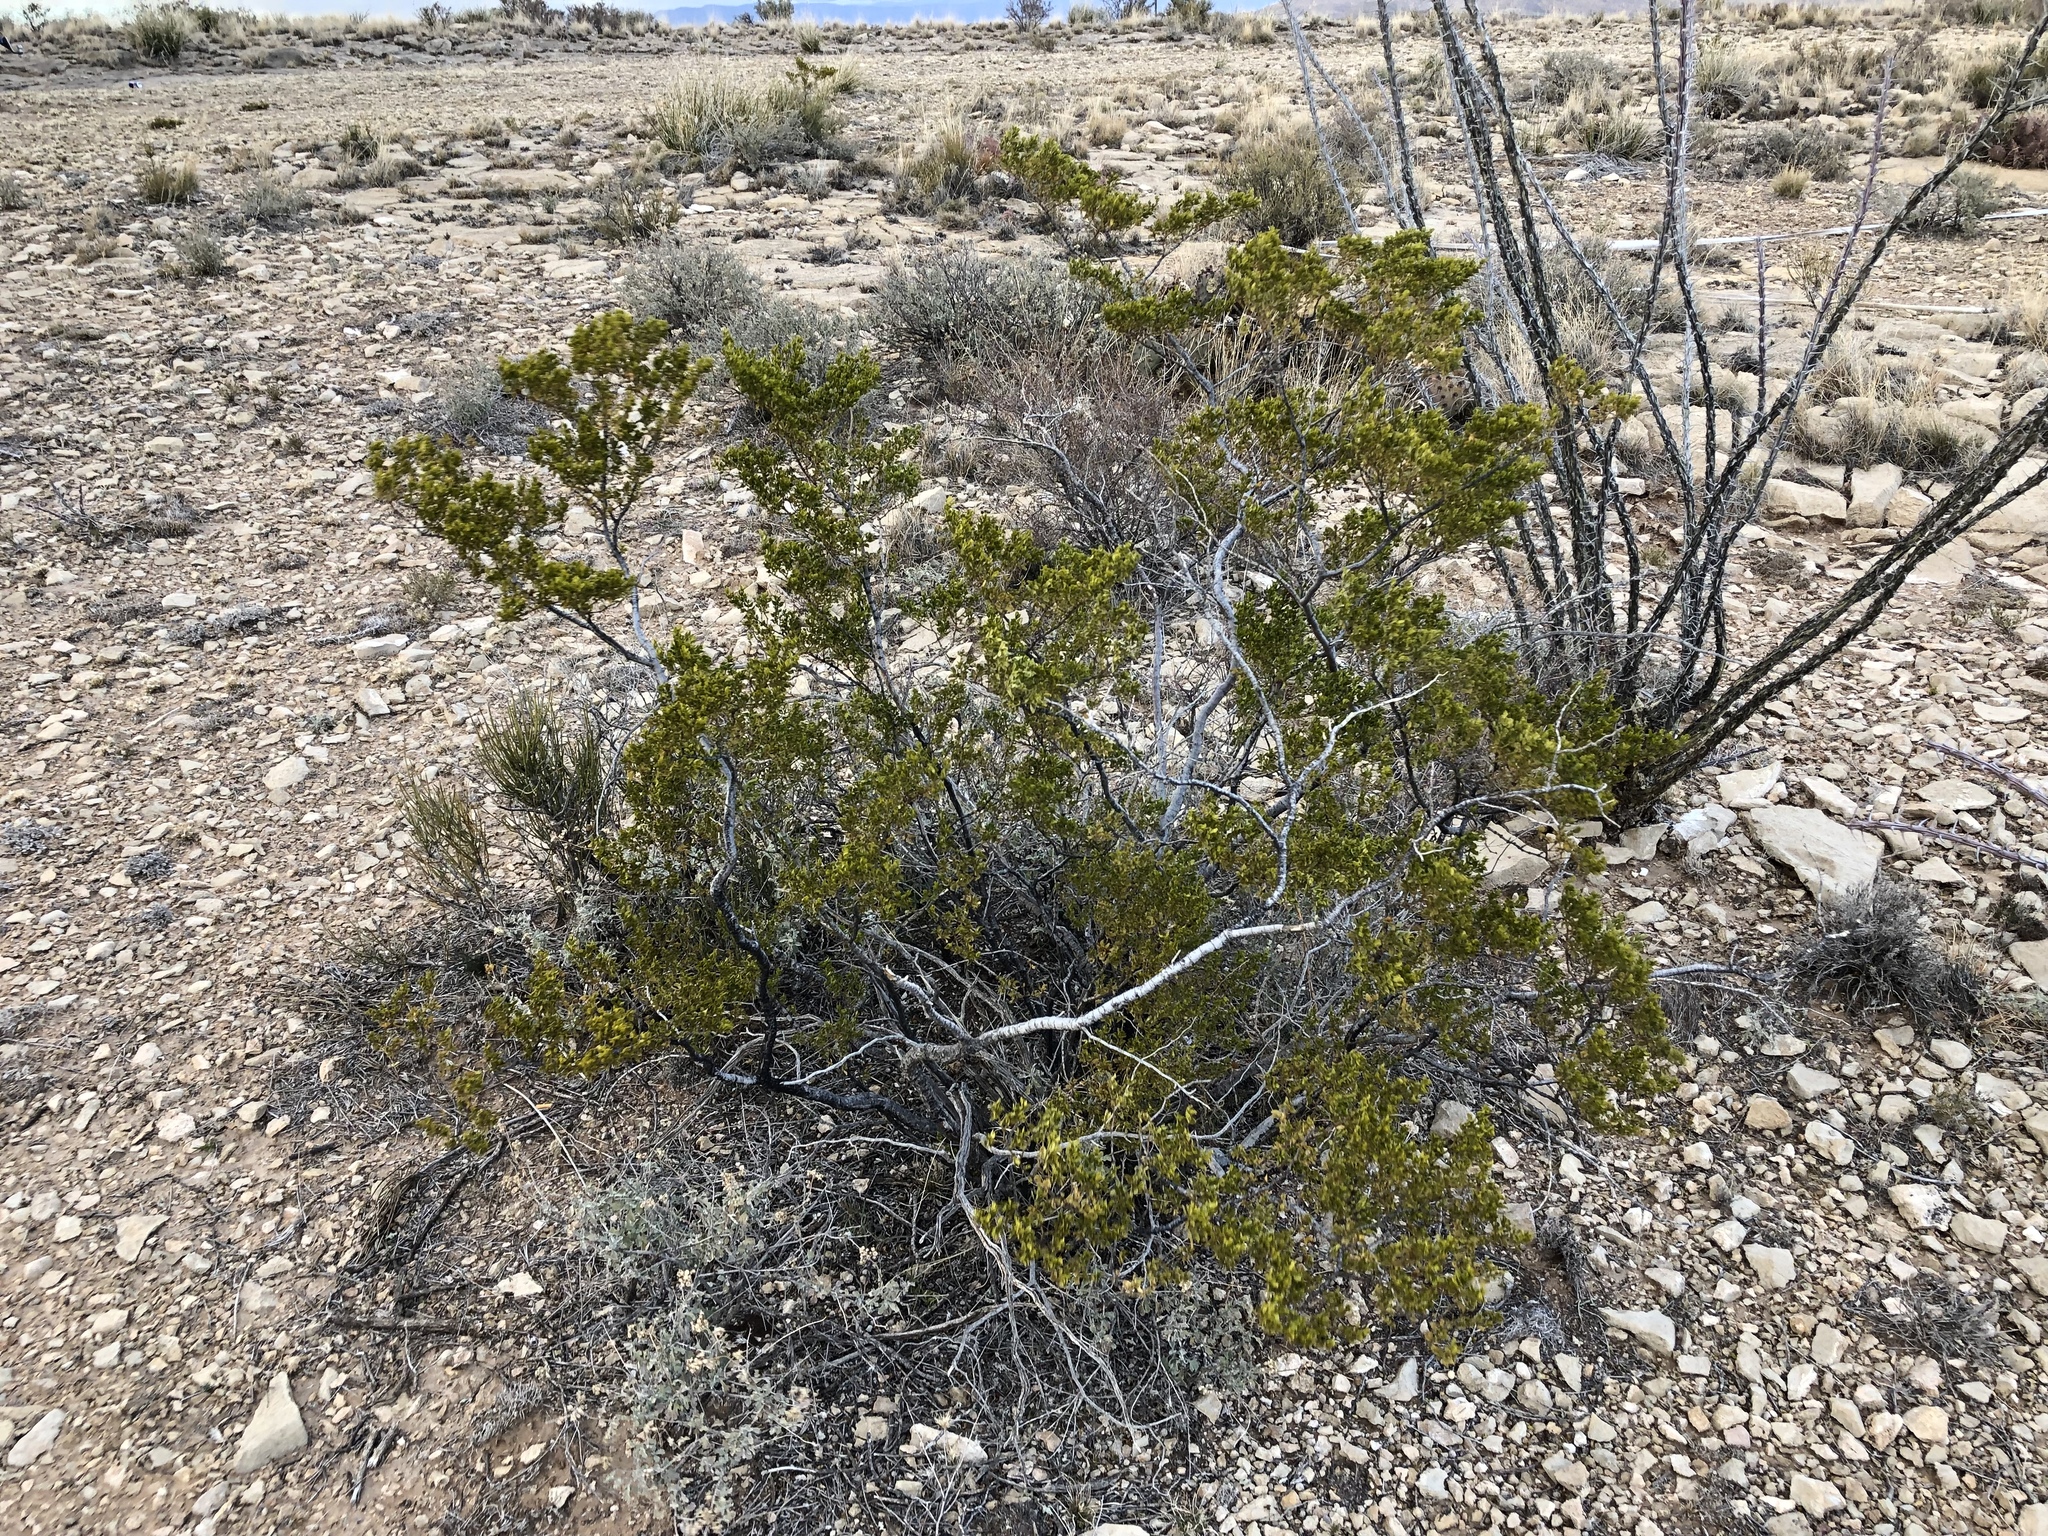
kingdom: Plantae
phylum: Tracheophyta
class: Magnoliopsida
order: Zygophyllales
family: Zygophyllaceae
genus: Larrea
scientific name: Larrea tridentata
